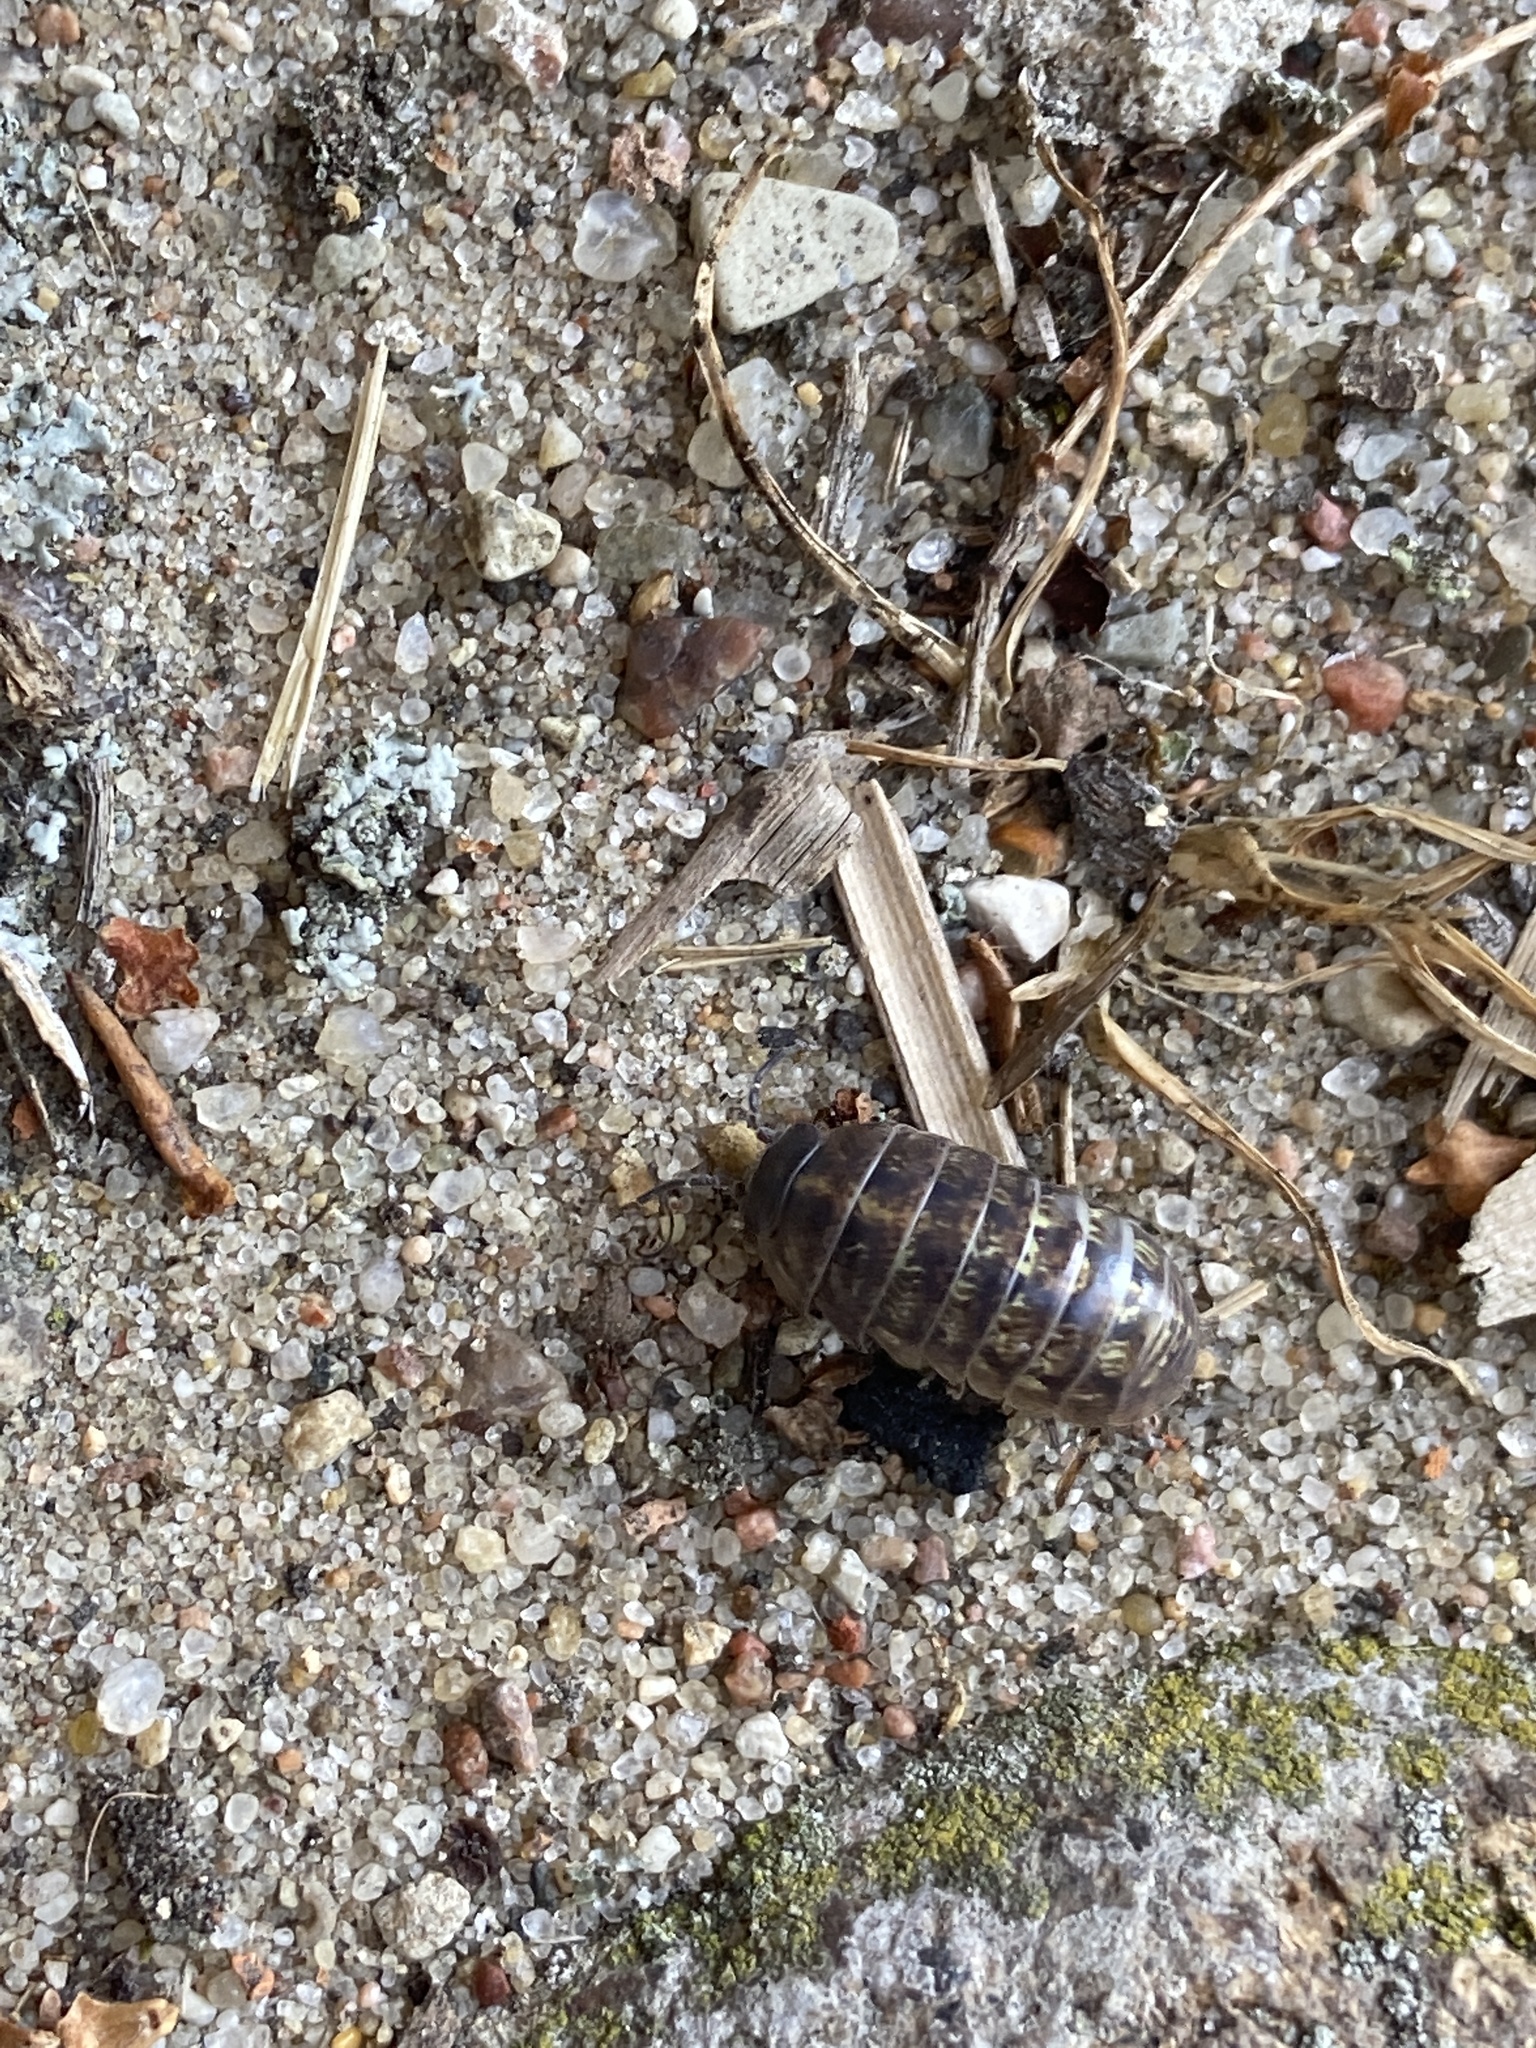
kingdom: Animalia
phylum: Arthropoda
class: Malacostraca
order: Isopoda
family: Armadillidiidae
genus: Armadillidium
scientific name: Armadillidium vulgare
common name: Common pill woodlouse
